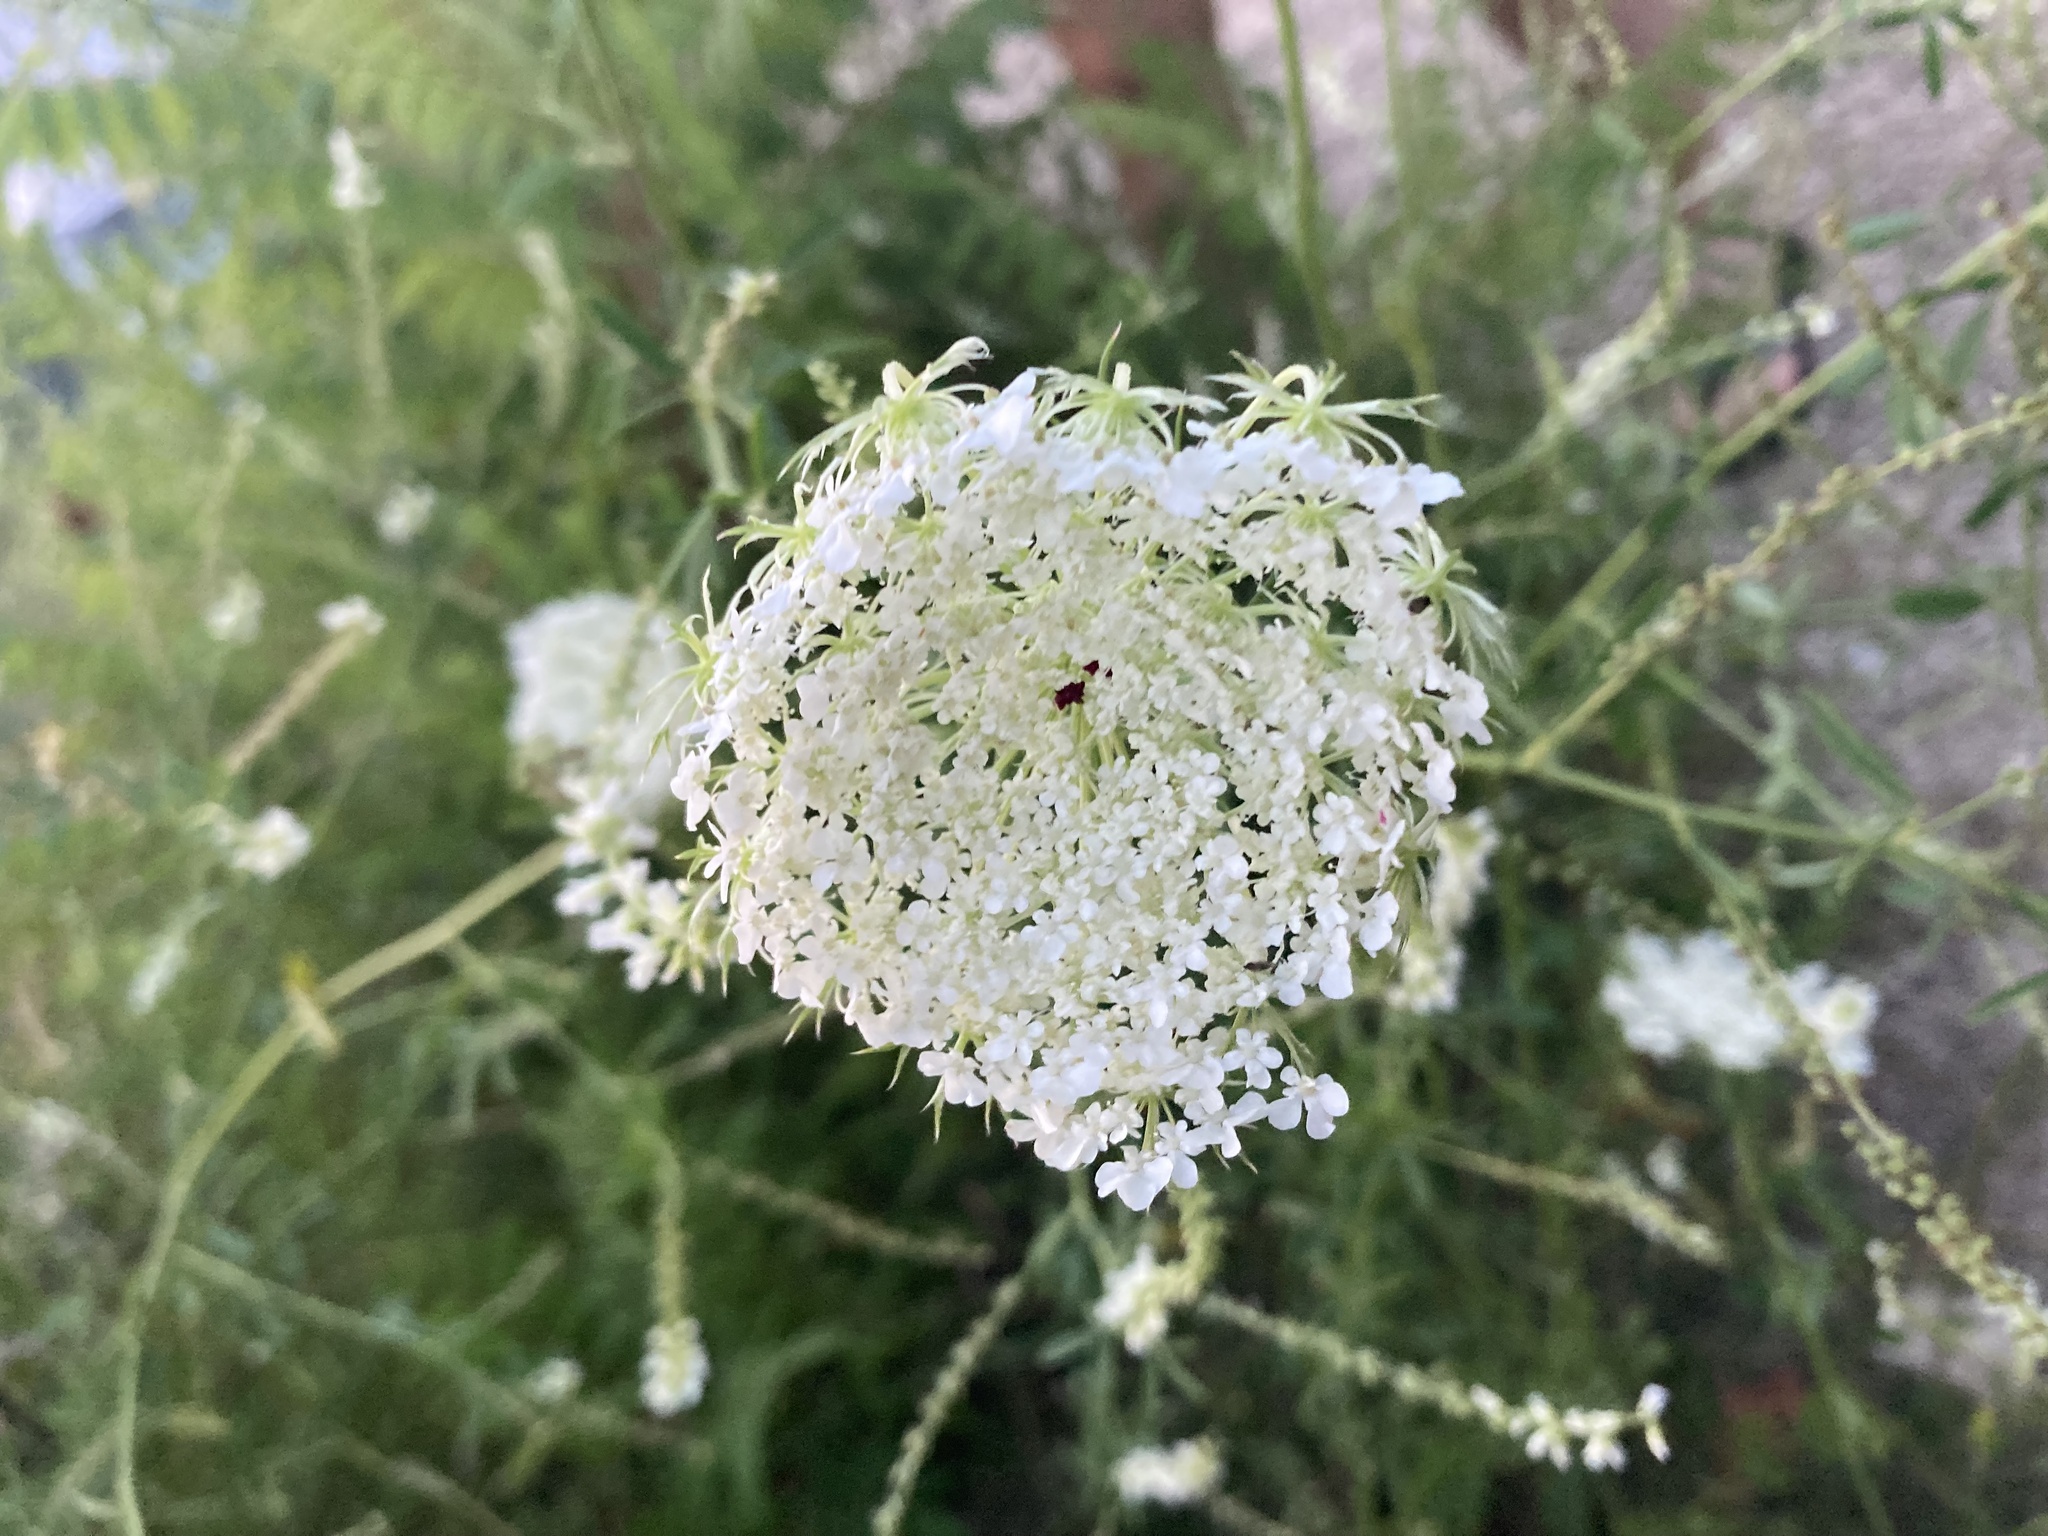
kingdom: Plantae
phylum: Tracheophyta
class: Magnoliopsida
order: Apiales
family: Apiaceae
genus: Daucus
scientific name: Daucus carota
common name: Wild carrot
